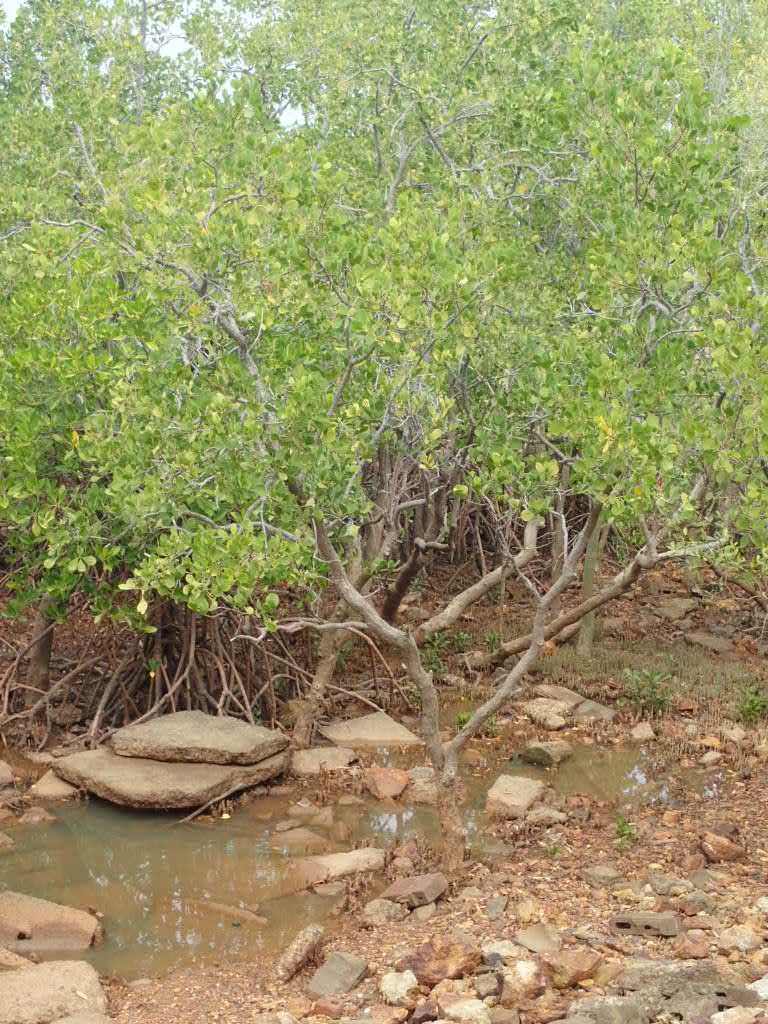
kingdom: Plantae
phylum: Tracheophyta
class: Magnoliopsida
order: Malpighiales
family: Rhizophoraceae
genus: Rhizophora
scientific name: Rhizophora stylosa
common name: Red mangrove
